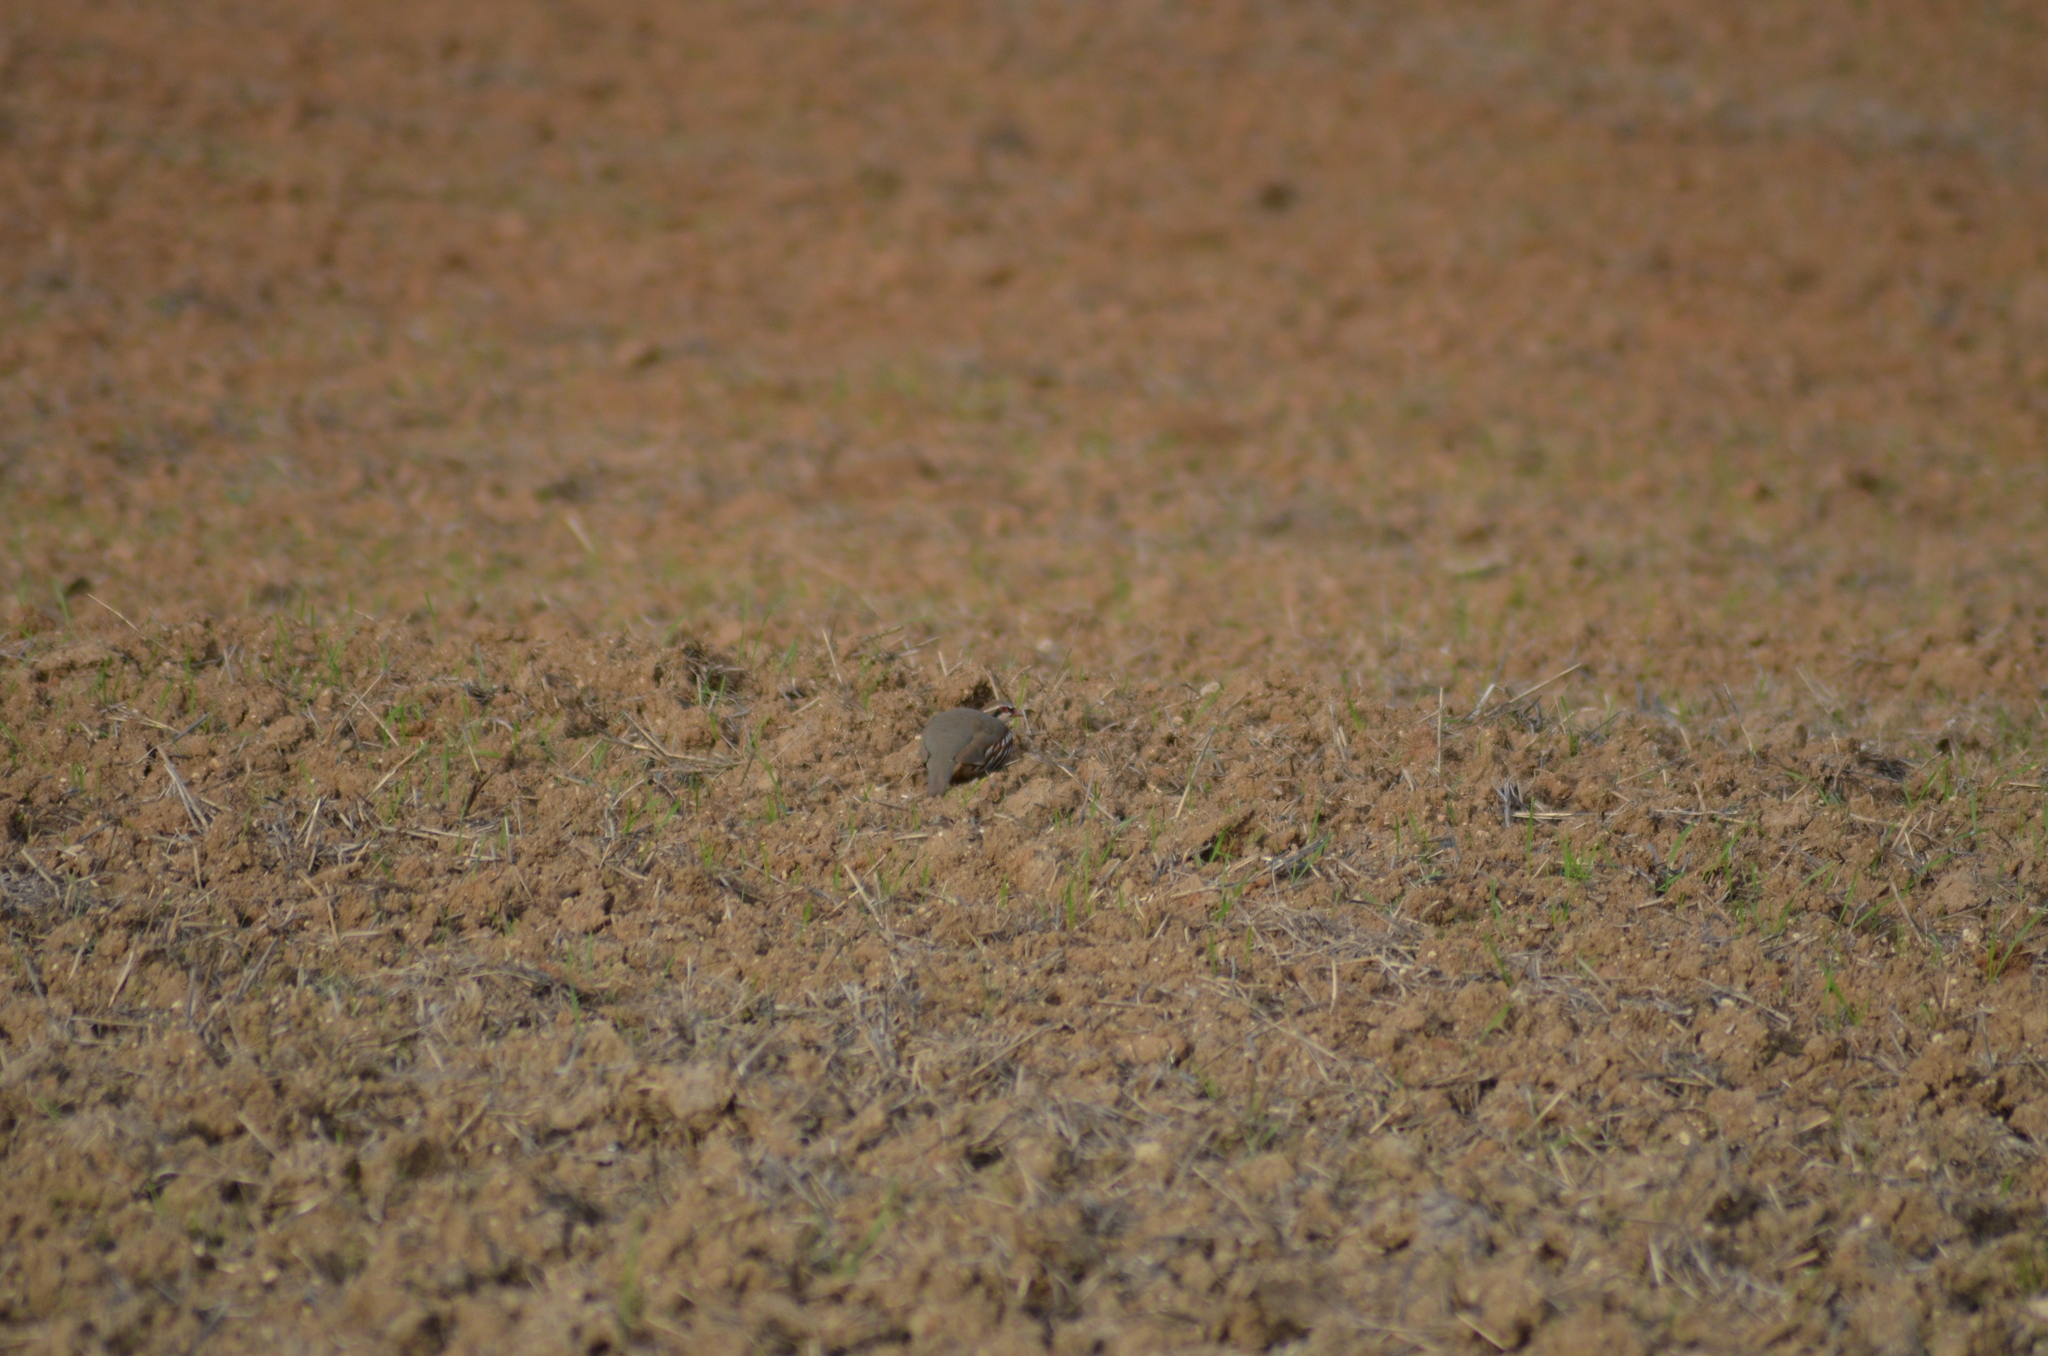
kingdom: Animalia
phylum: Chordata
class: Aves
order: Galliformes
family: Phasianidae
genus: Alectoris
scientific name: Alectoris rufa
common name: Red-legged partridge
